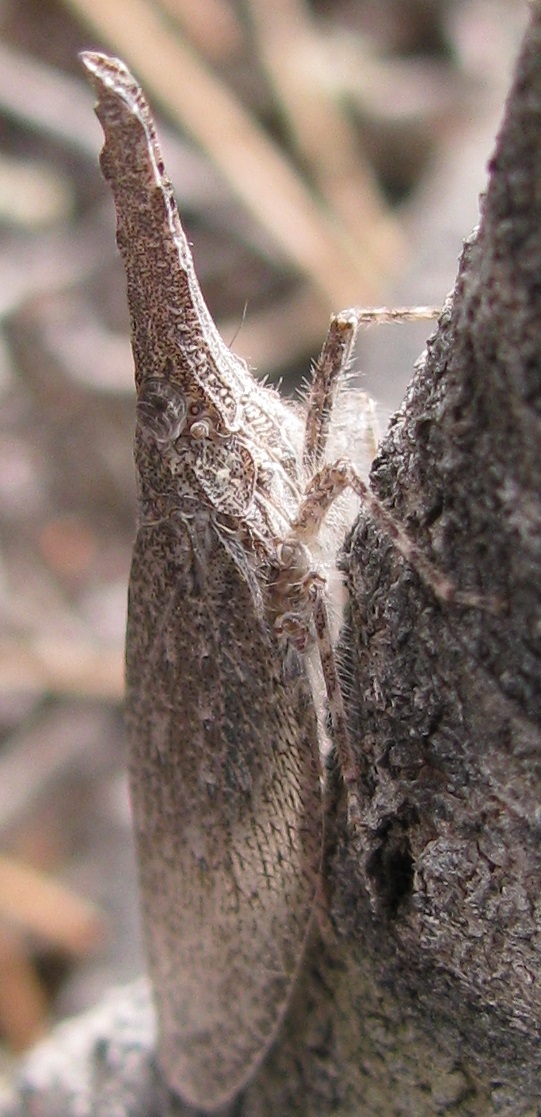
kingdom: Animalia
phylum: Arthropoda
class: Insecta
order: Hemiptera
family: Fulgoridae
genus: Rentinus
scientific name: Rentinus dilatatus
